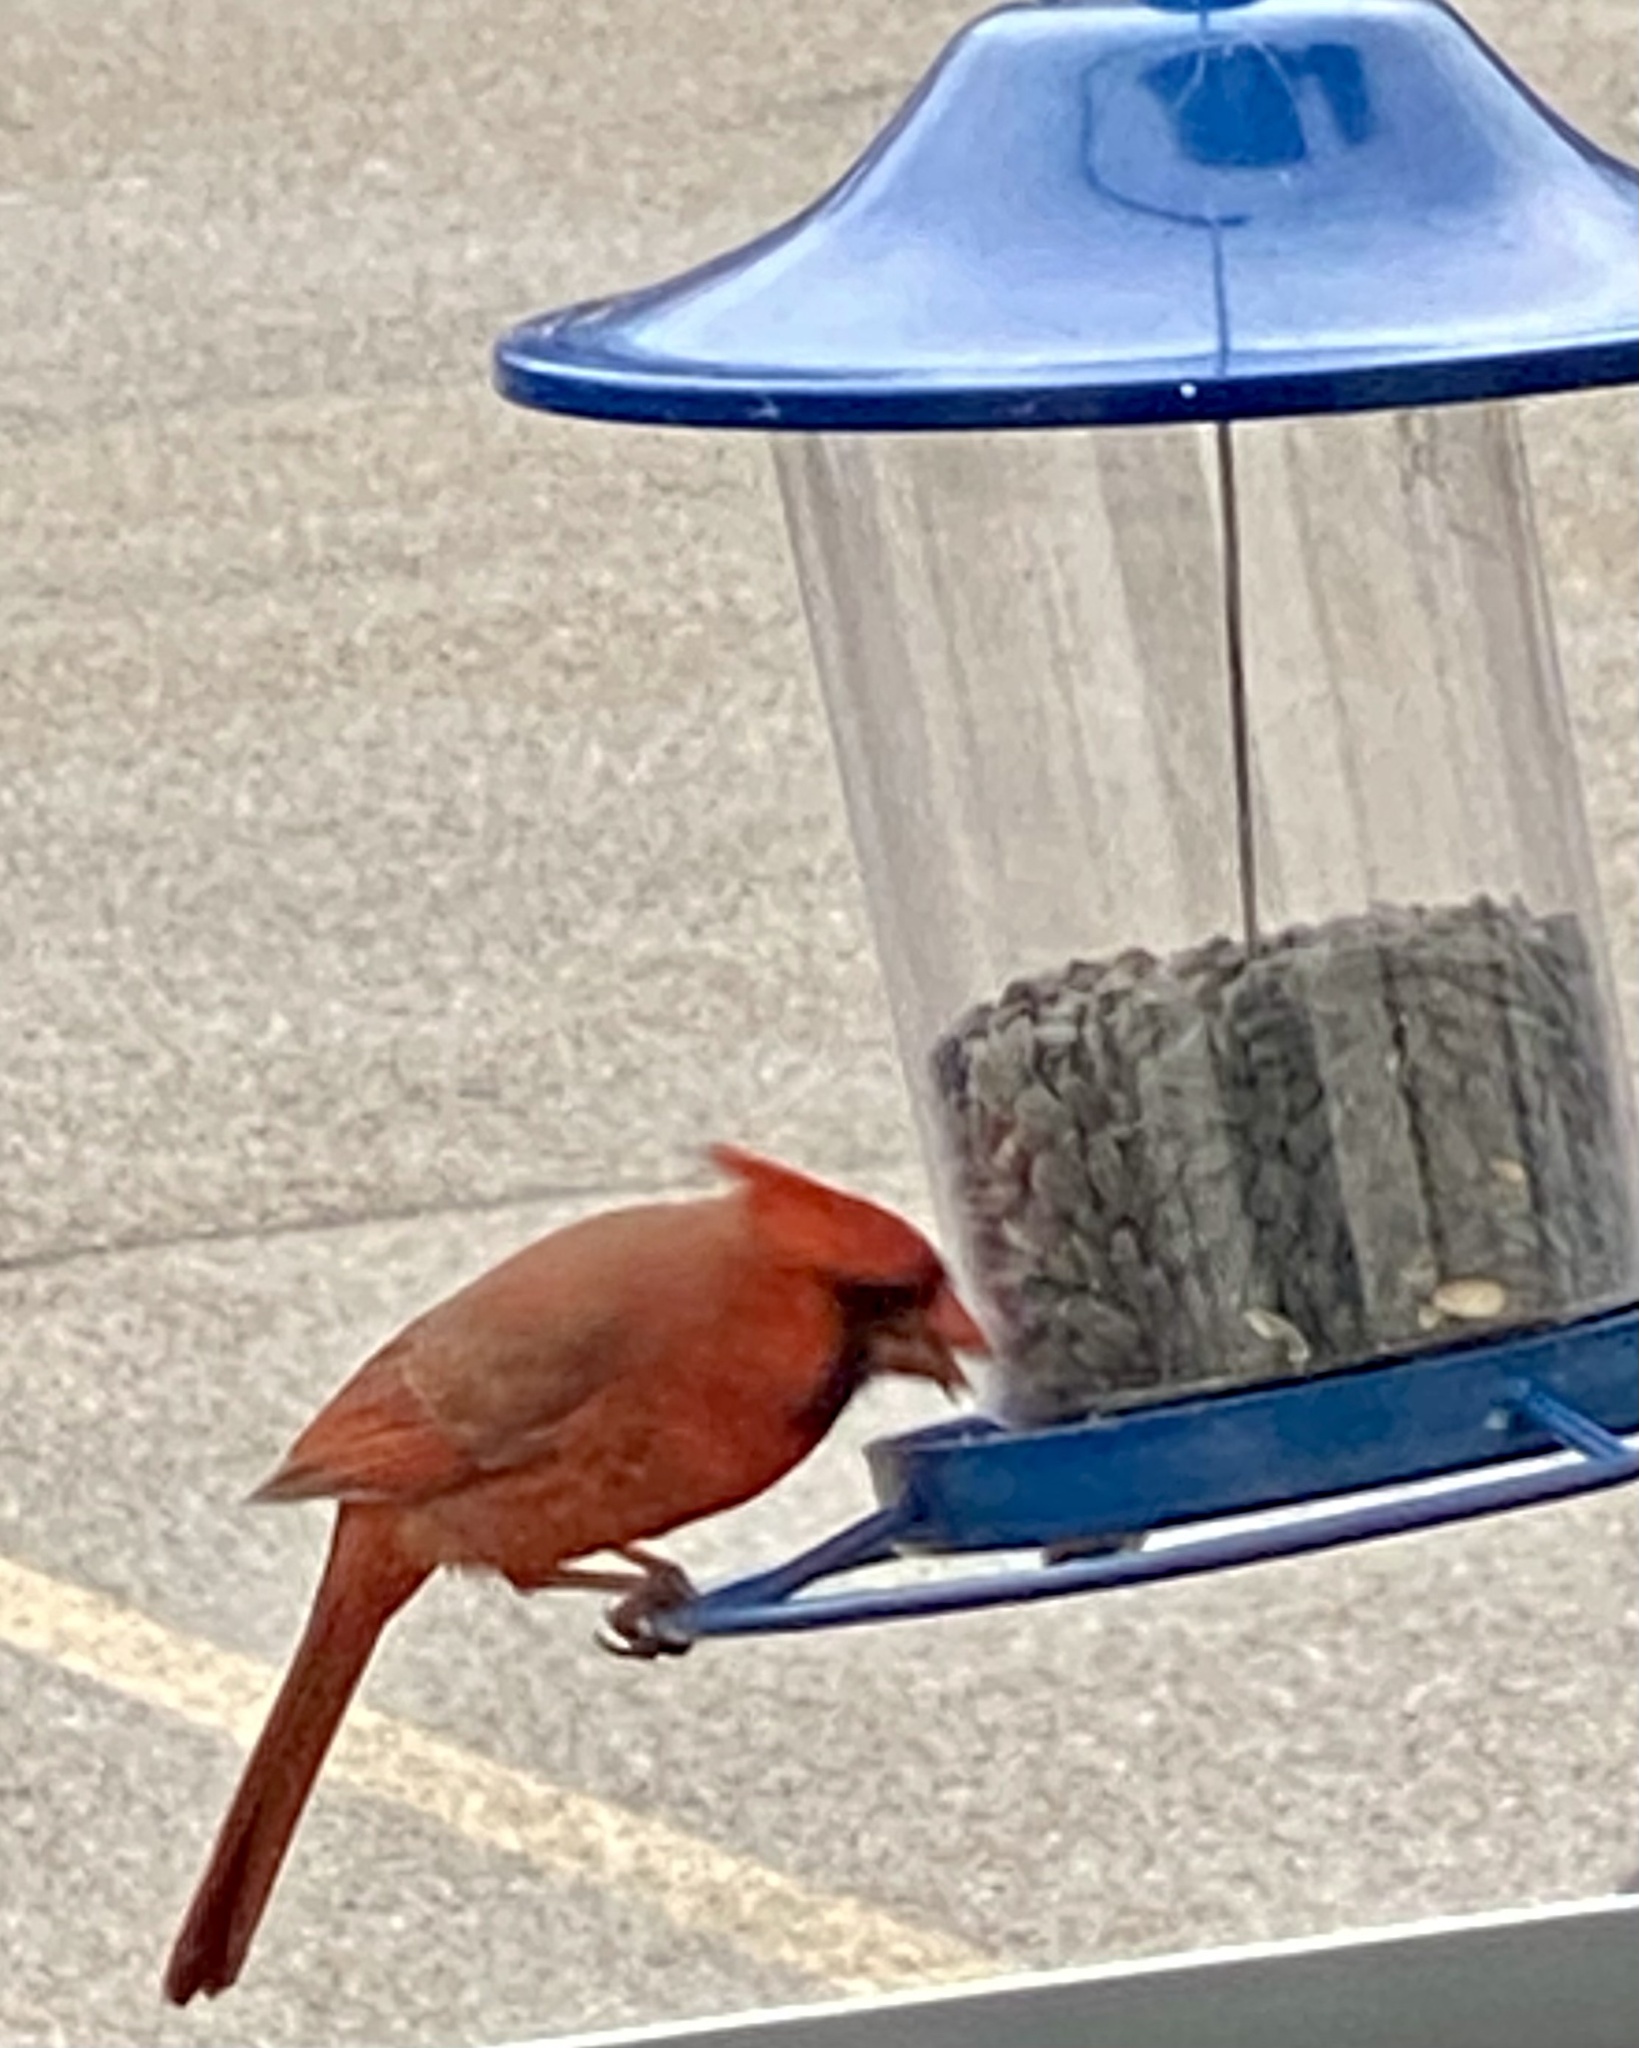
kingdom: Animalia
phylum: Chordata
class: Aves
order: Passeriformes
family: Cardinalidae
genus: Cardinalis
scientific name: Cardinalis cardinalis
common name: Northern cardinal
